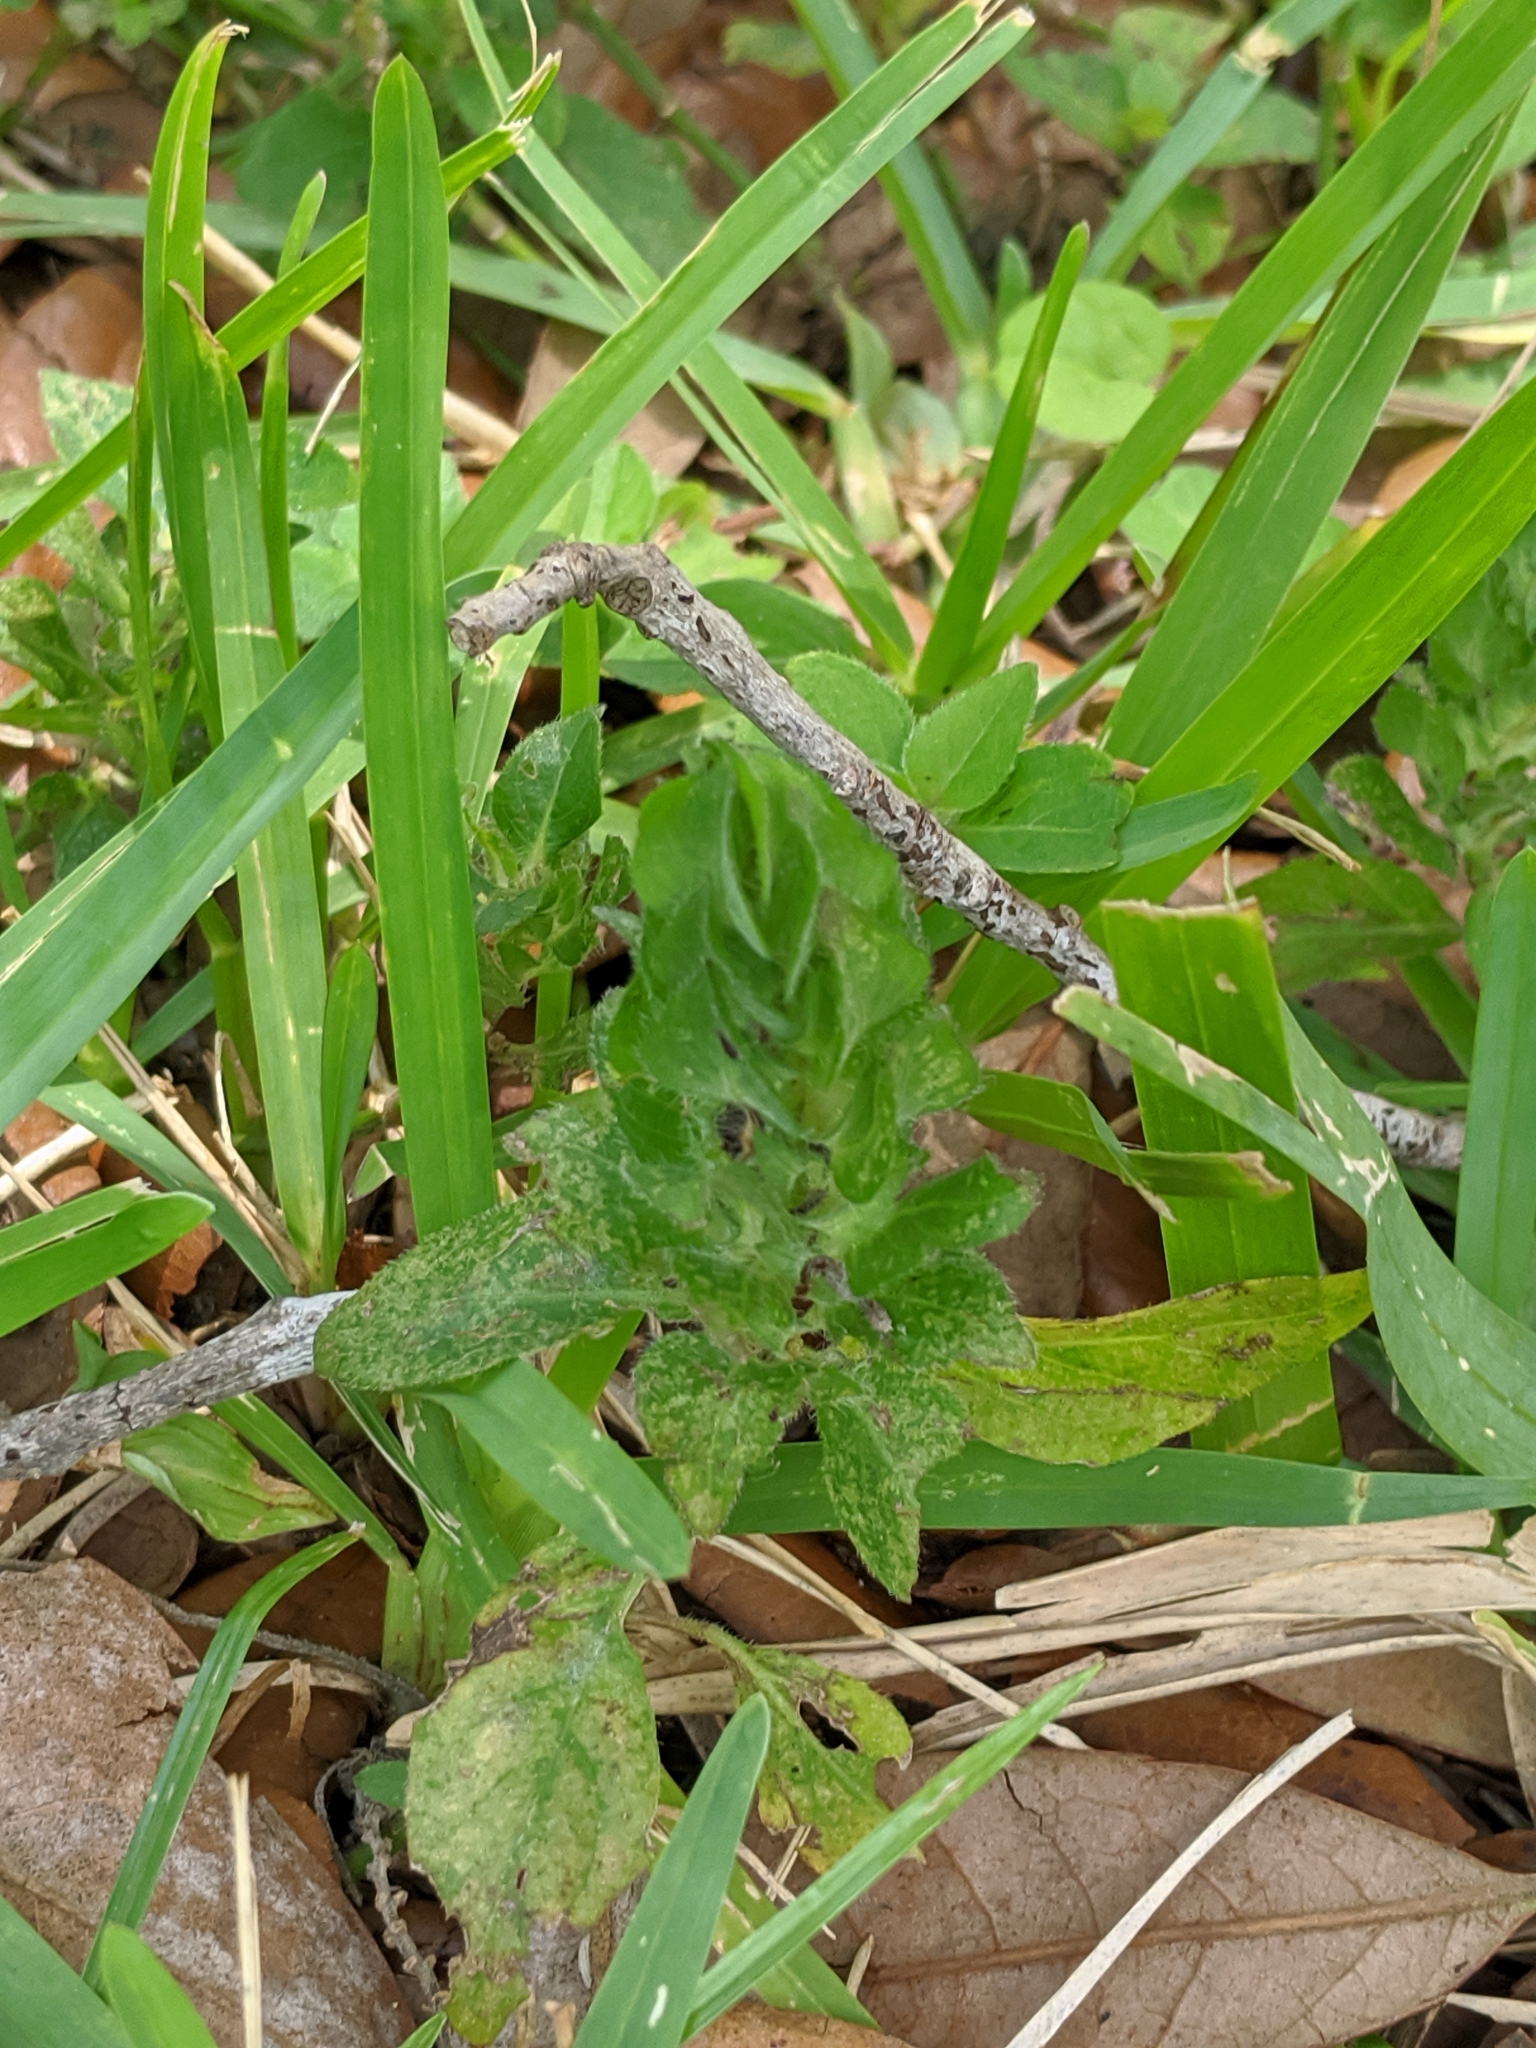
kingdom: Plantae
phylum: Tracheophyta
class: Magnoliopsida
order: Lamiales
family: Acanthaceae
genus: Ruellia
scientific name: Ruellia blechum
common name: Browne's blechum
